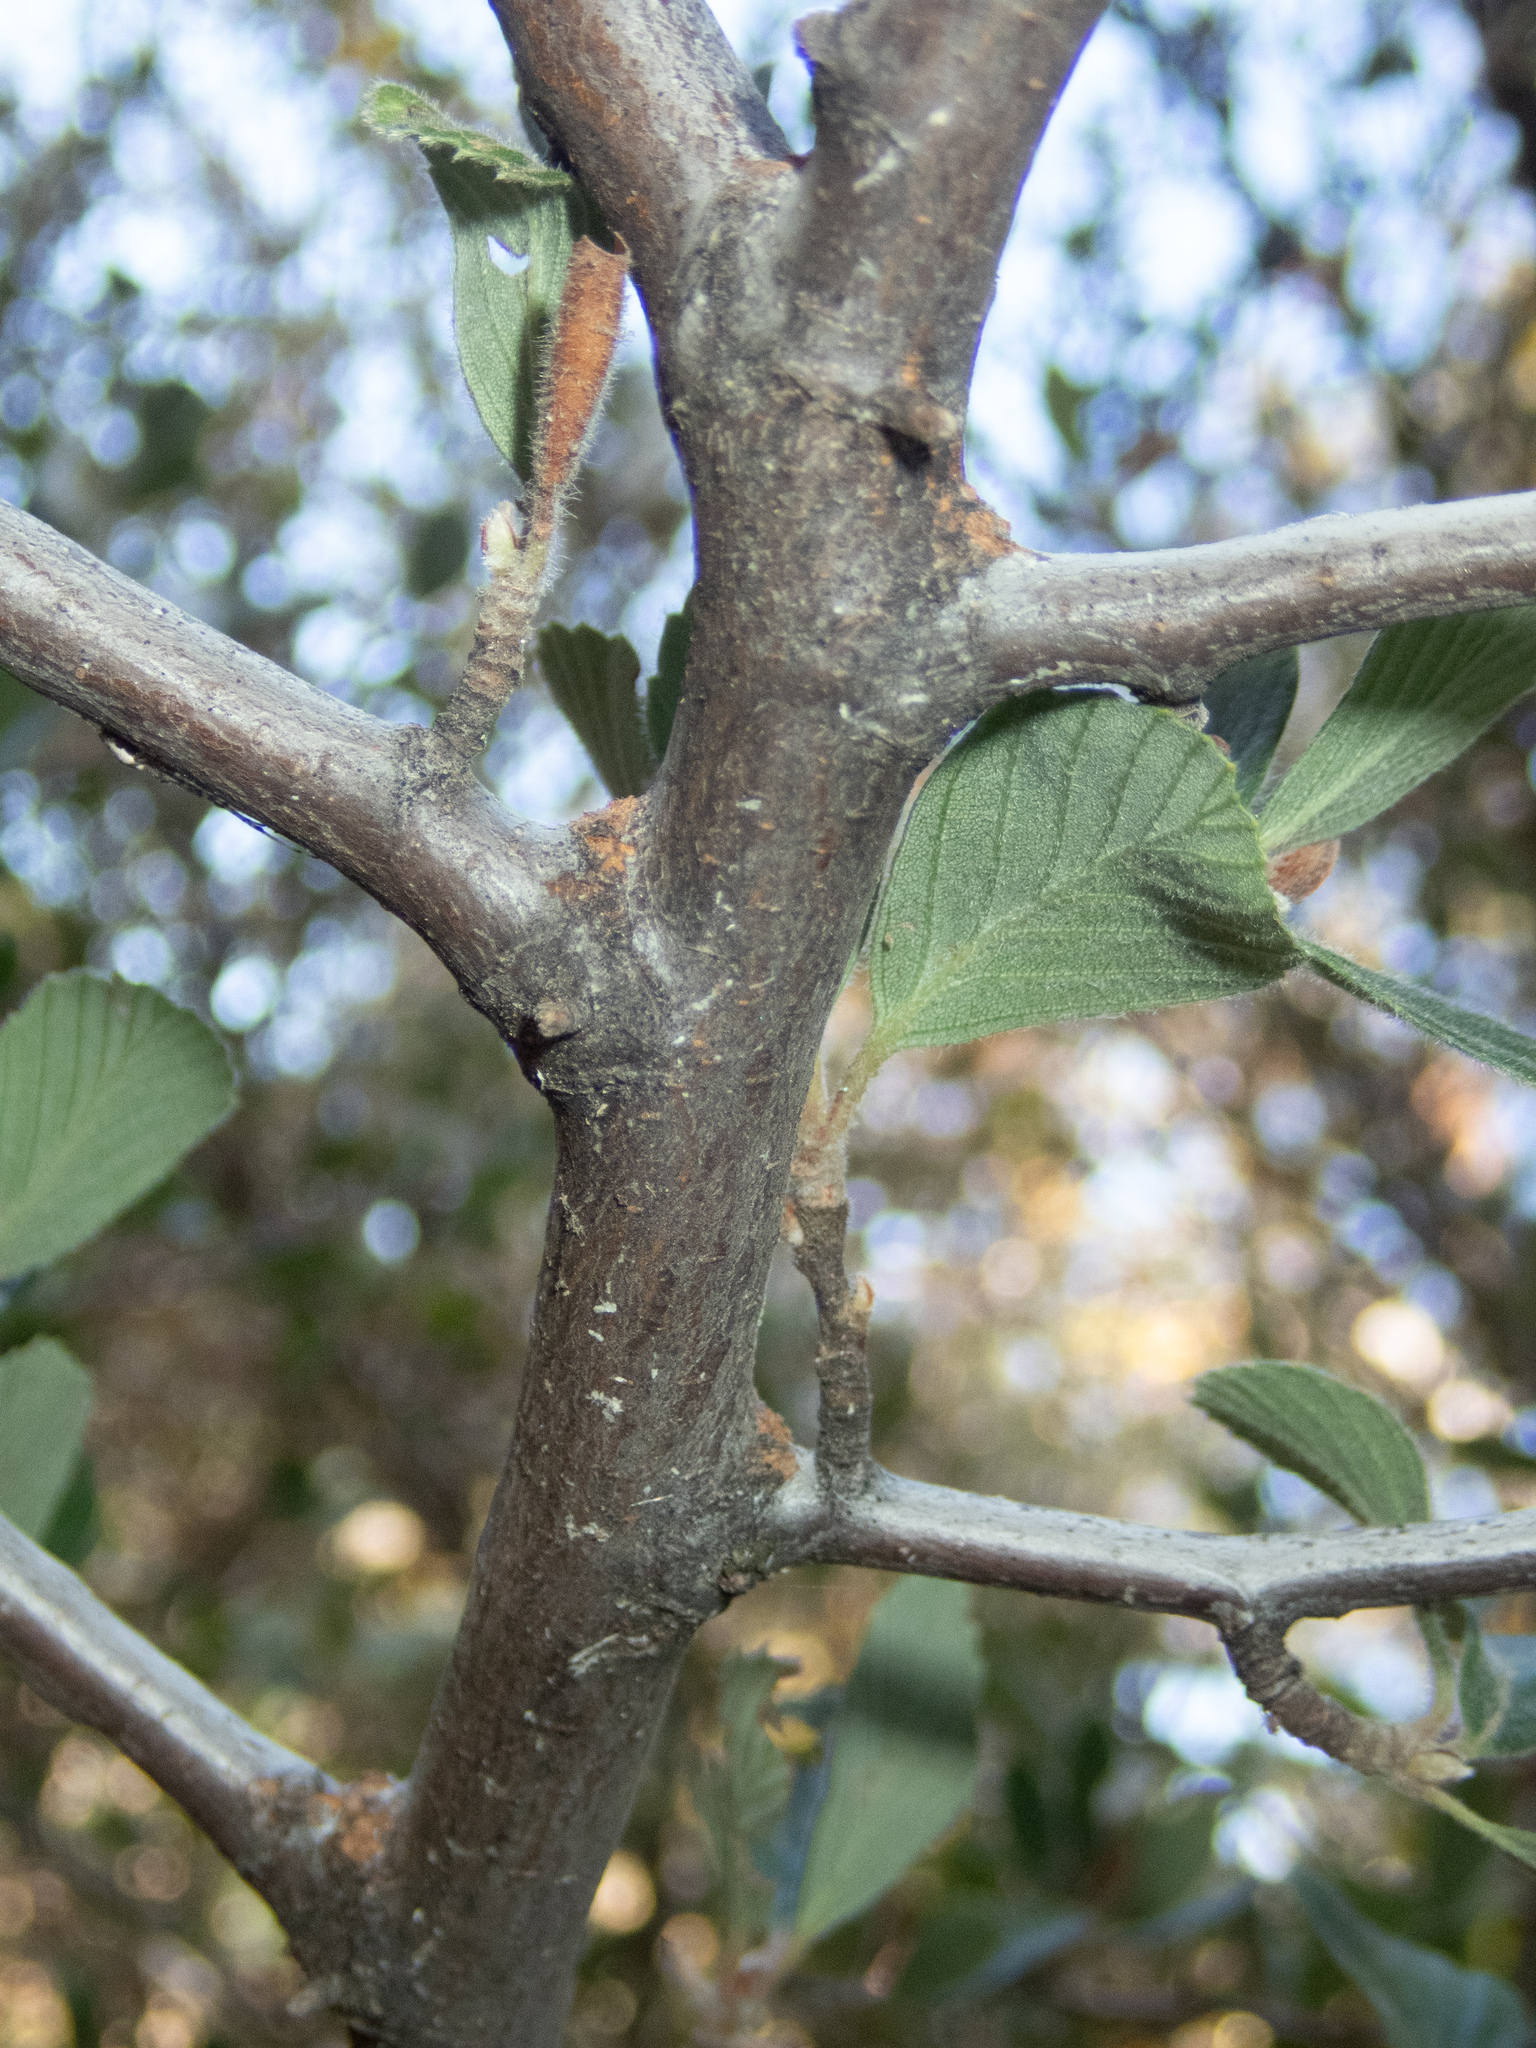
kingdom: Plantae
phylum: Tracheophyta
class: Magnoliopsida
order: Rosales
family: Rosaceae
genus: Cercocarpus
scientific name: Cercocarpus betuloides
